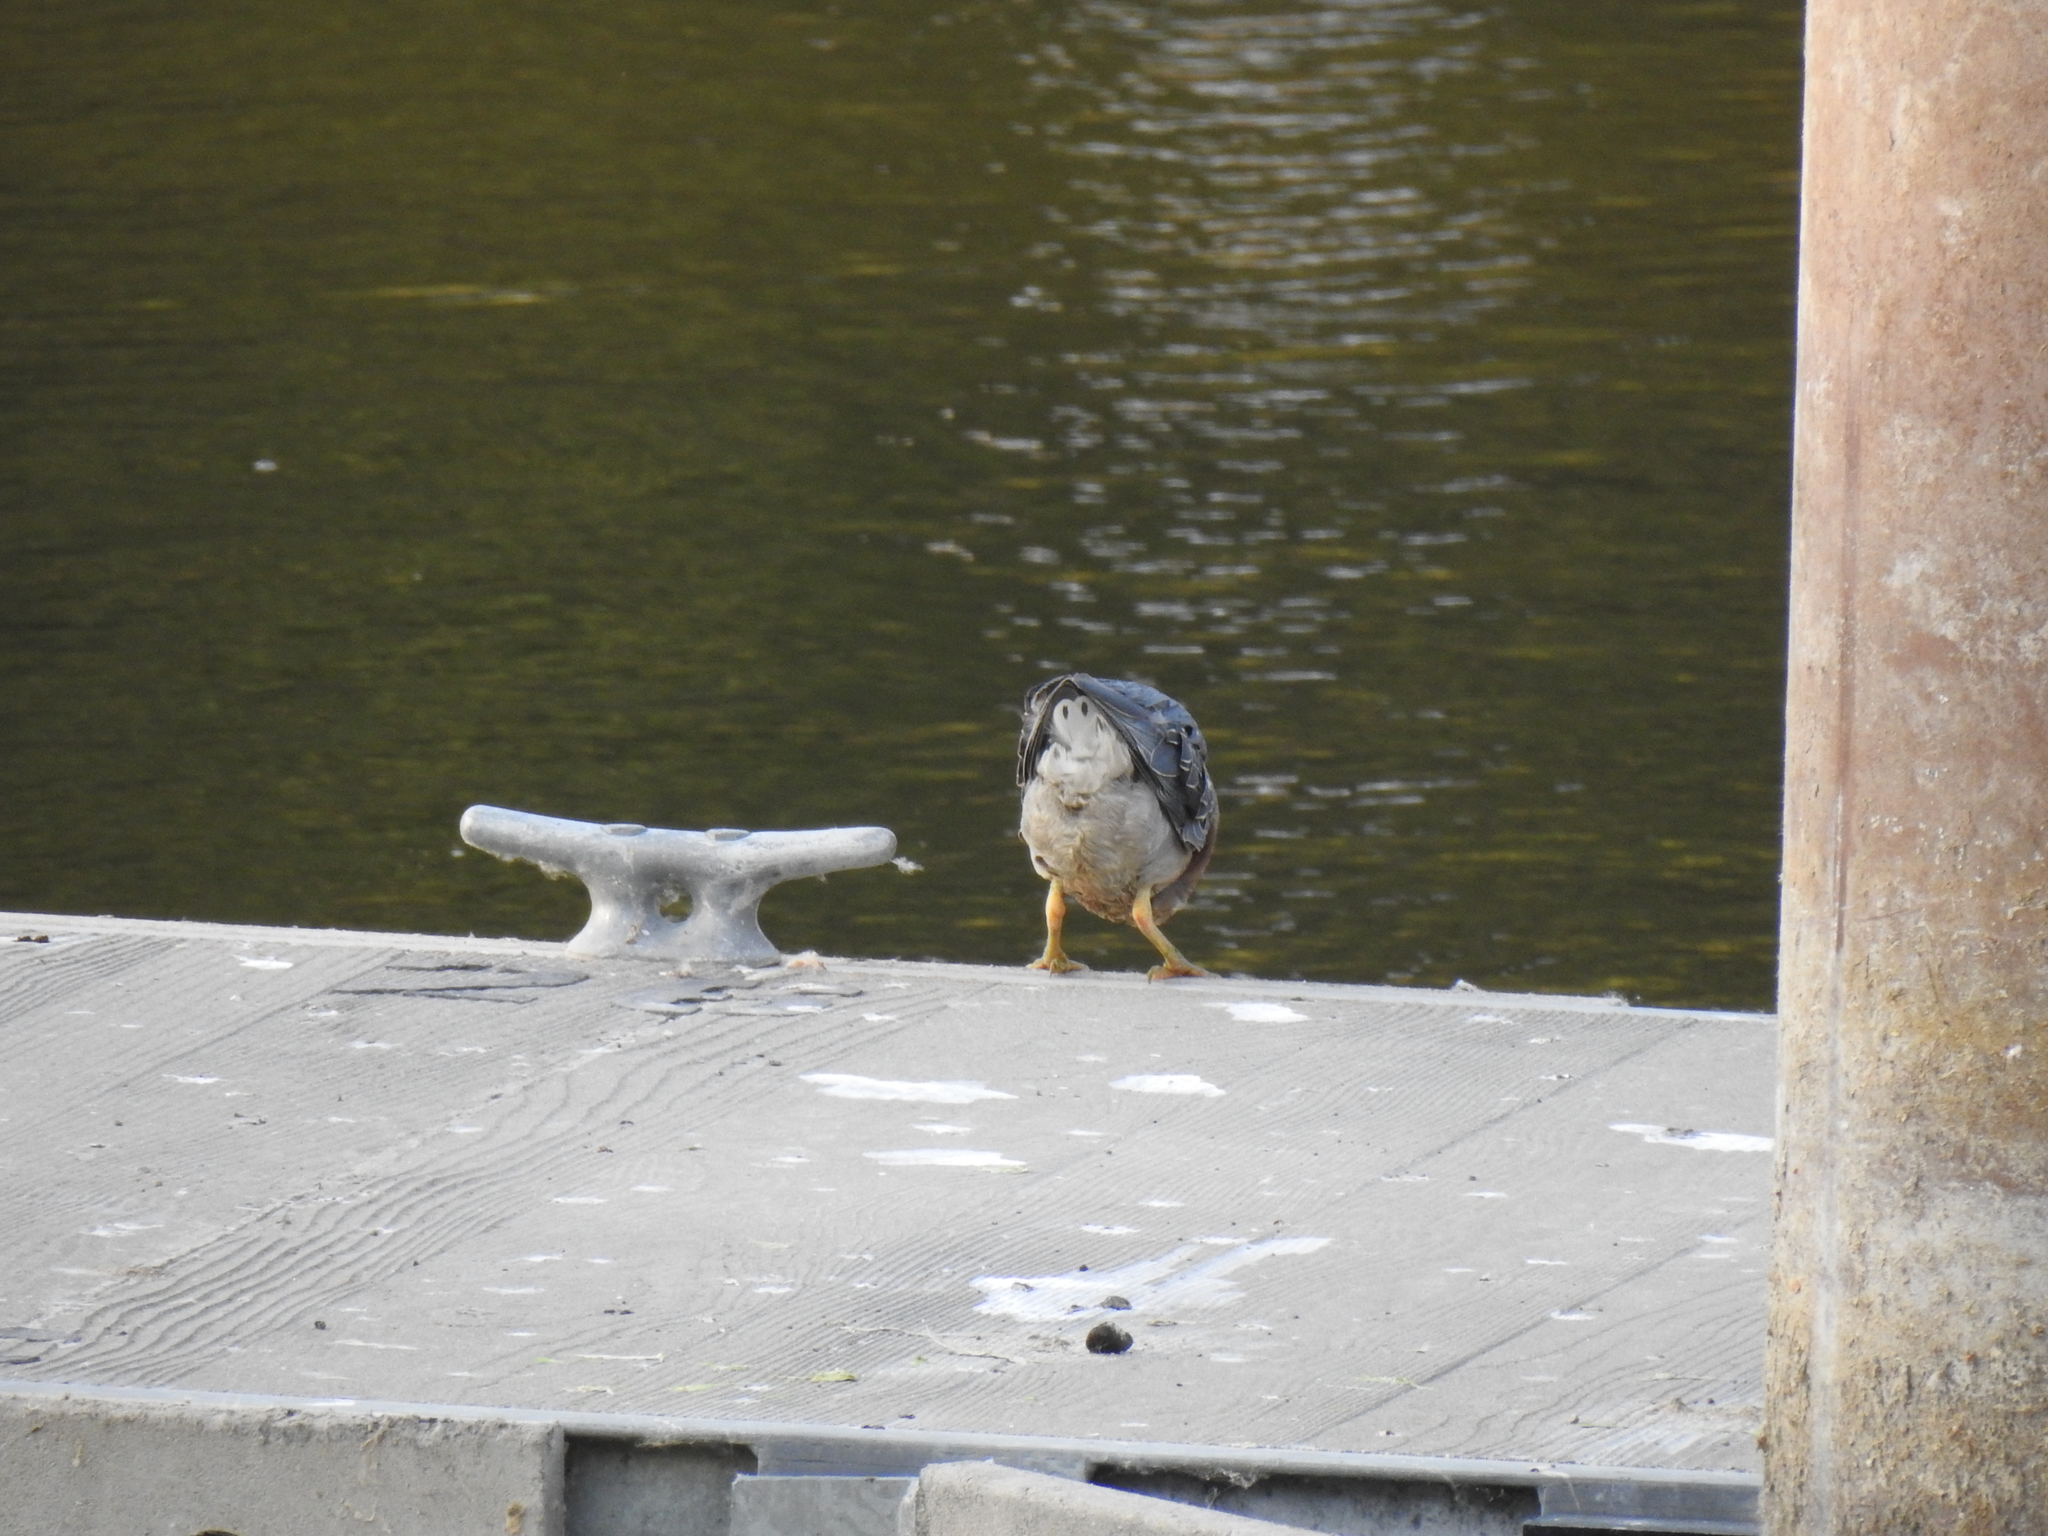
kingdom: Animalia
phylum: Chordata
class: Aves
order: Pelecaniformes
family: Ardeidae
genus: Butorides
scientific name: Butorides virescens
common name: Green heron
